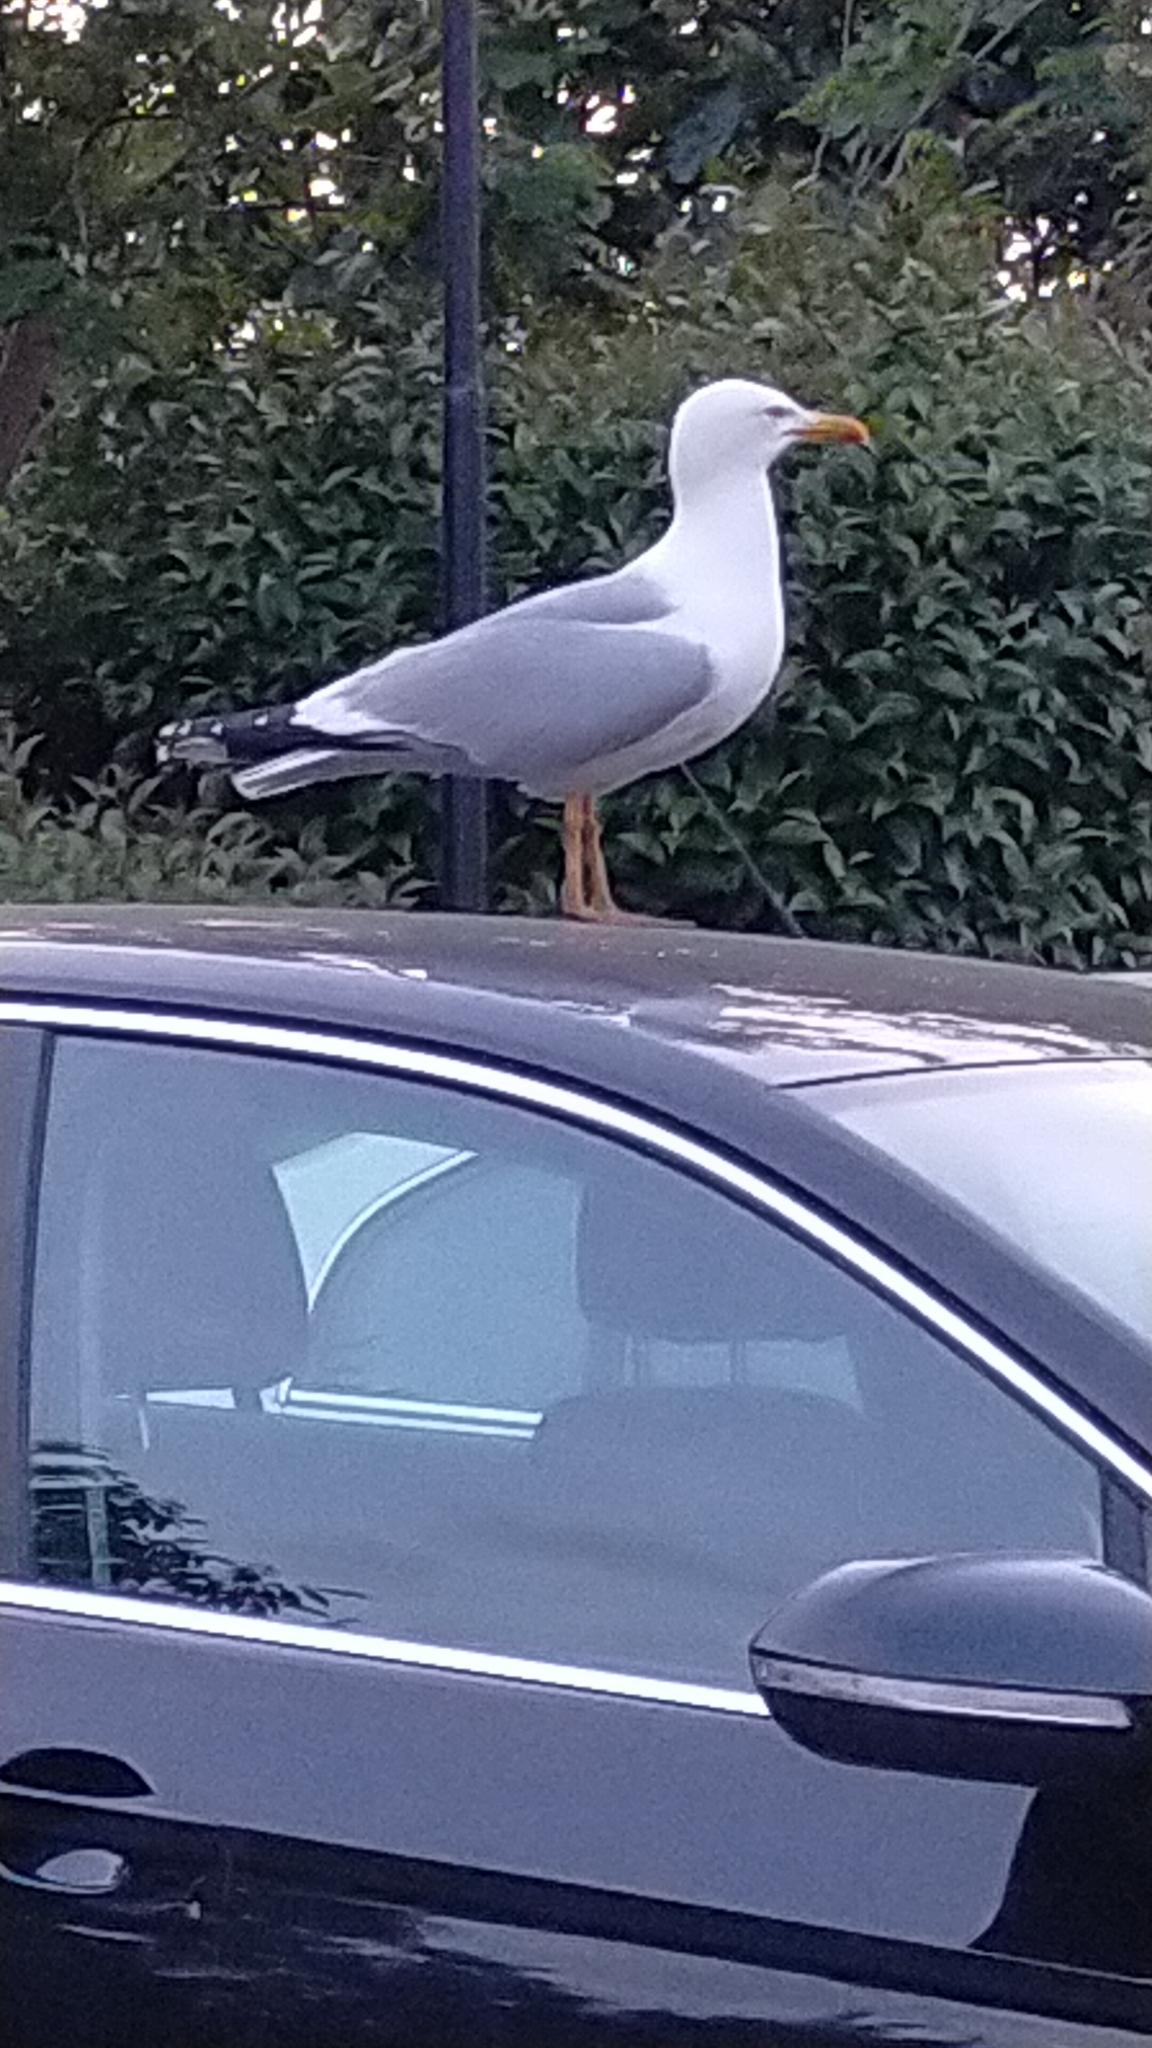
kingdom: Animalia
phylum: Chordata
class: Aves
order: Charadriiformes
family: Laridae
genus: Larus
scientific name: Larus michahellis
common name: Yellow-legged gull
